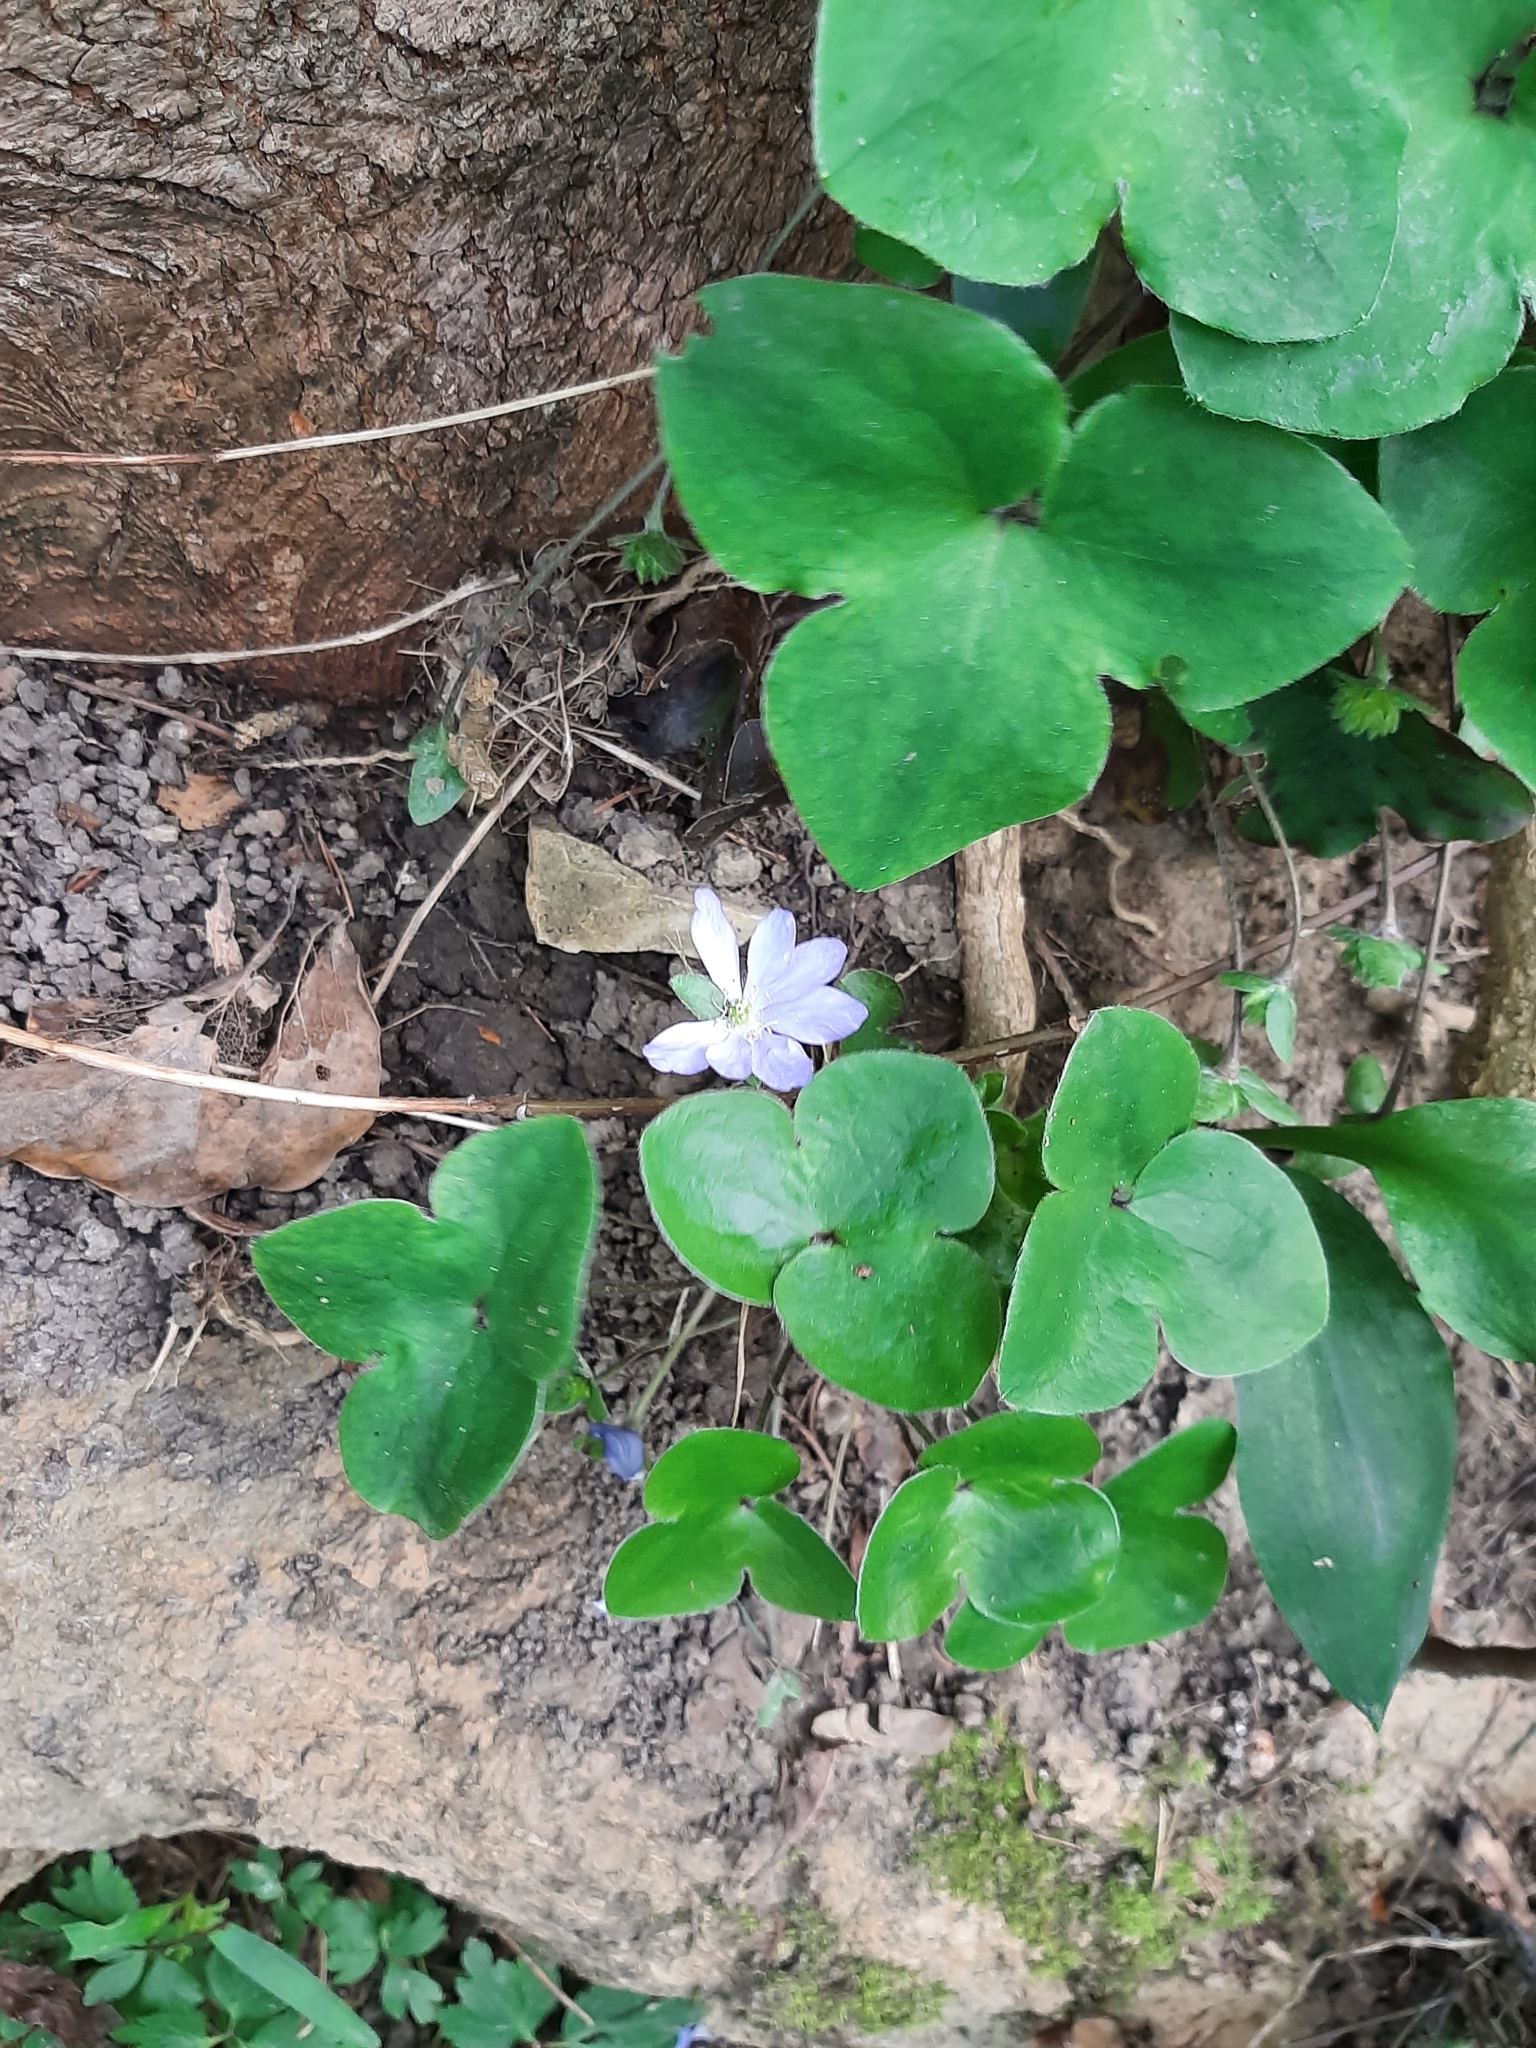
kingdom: Plantae
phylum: Tracheophyta
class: Magnoliopsida
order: Ranunculales
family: Ranunculaceae
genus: Hepatica
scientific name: Hepatica nobilis
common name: Liverleaf
